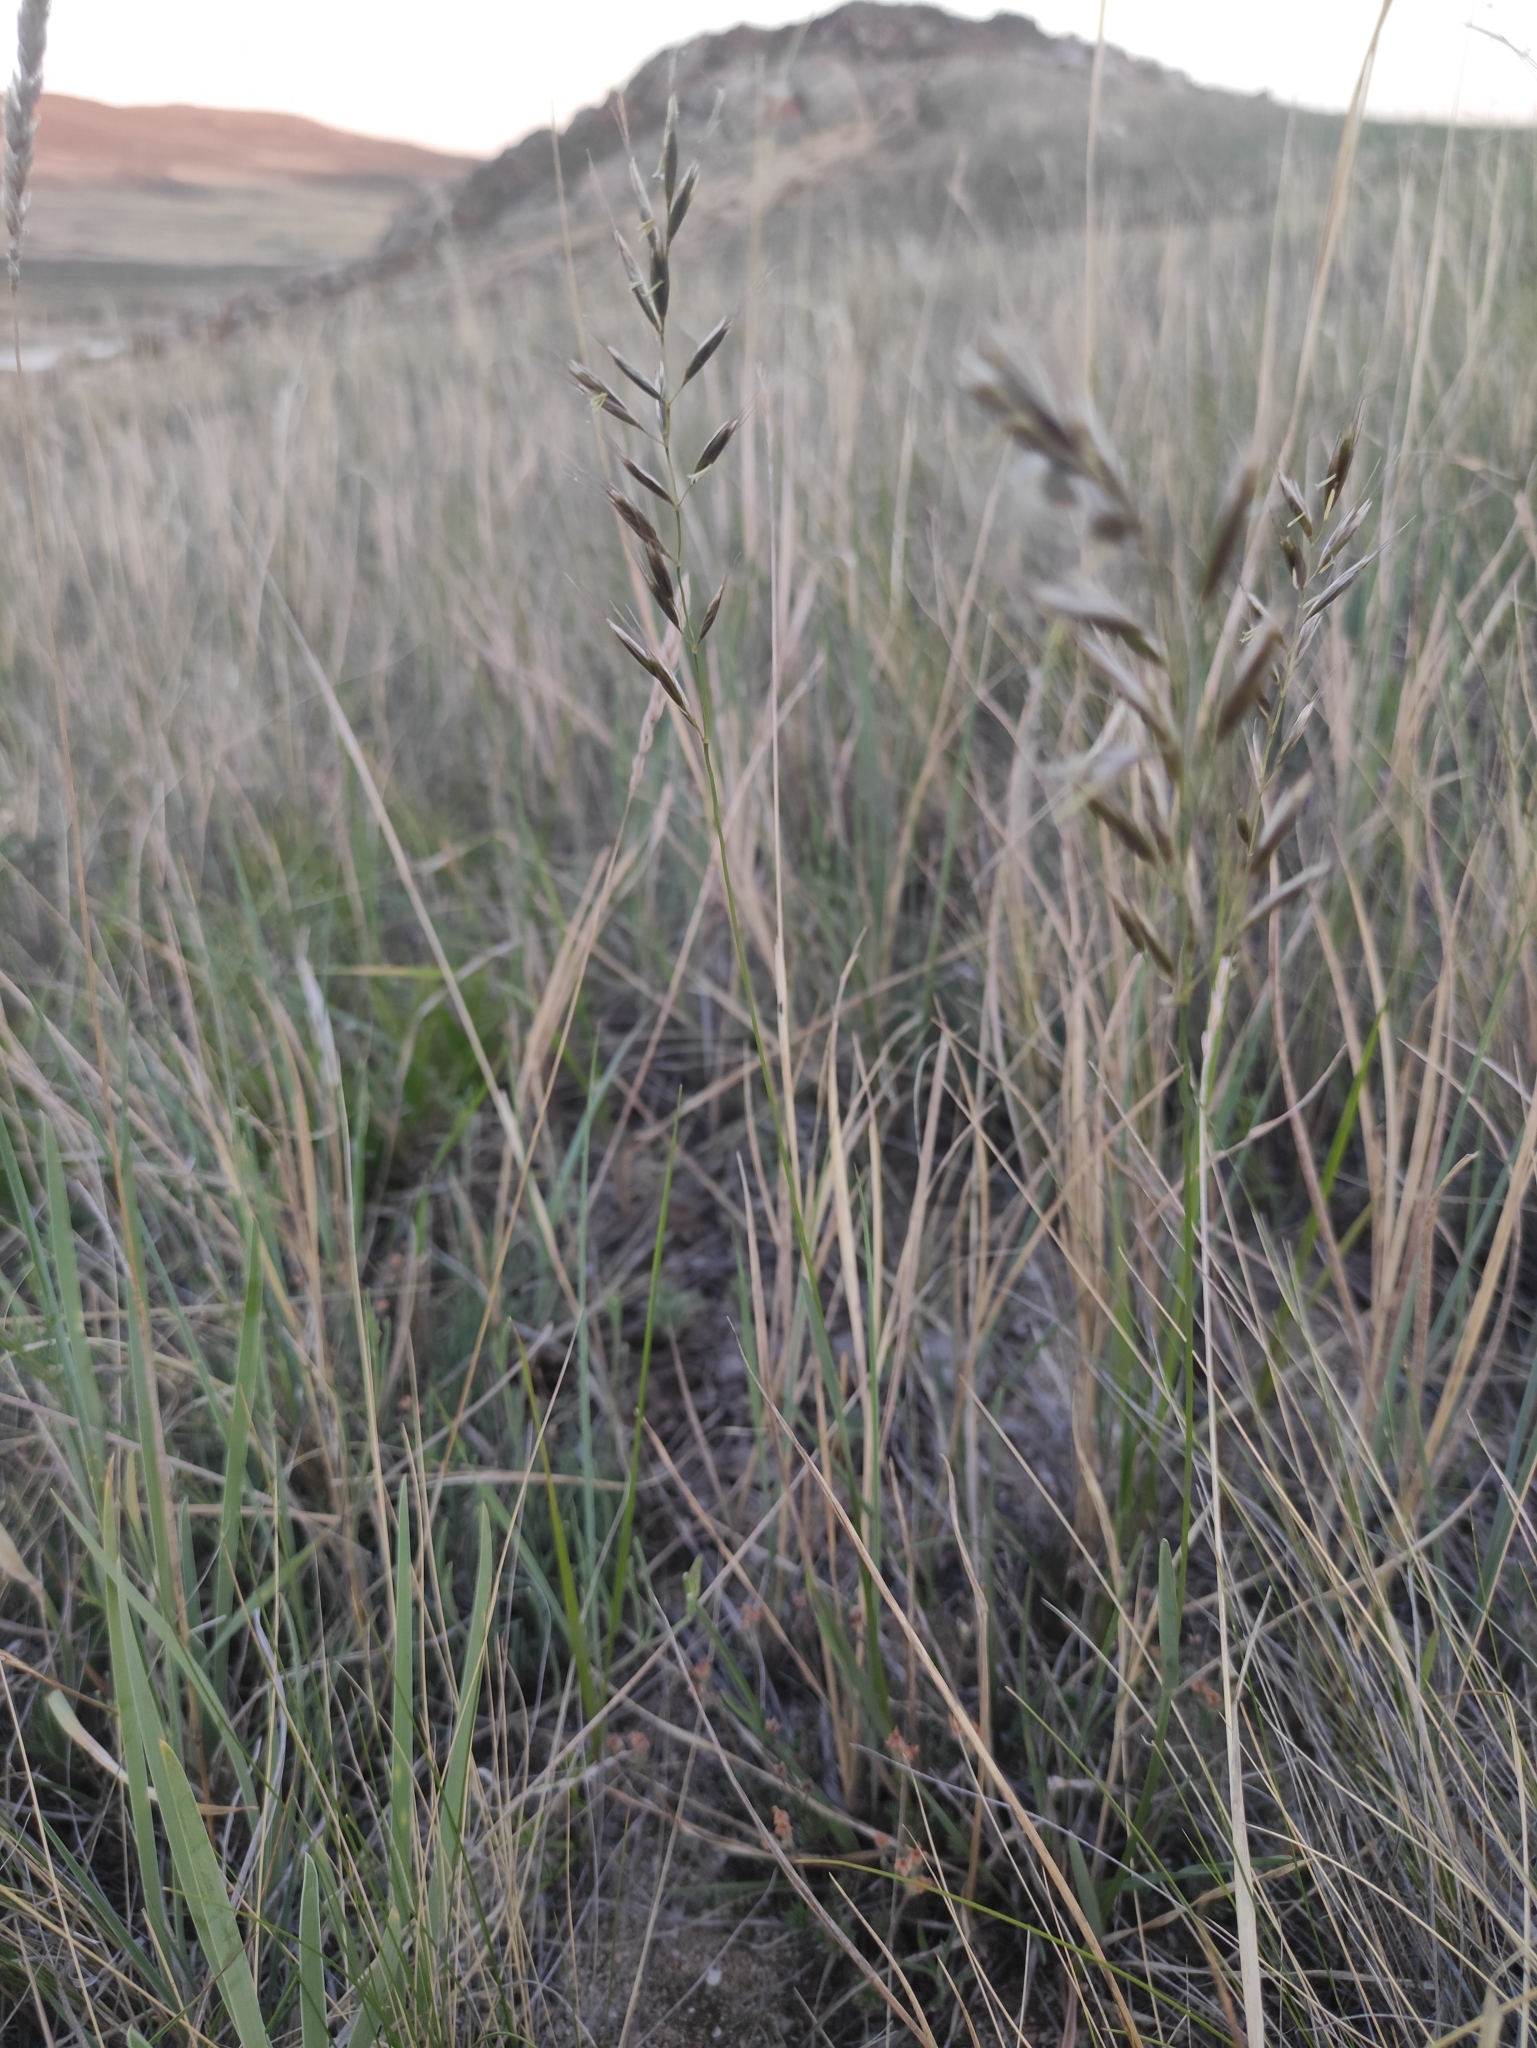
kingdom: Plantae
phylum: Tracheophyta
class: Liliopsida
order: Poales
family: Poaceae
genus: Helictochloa
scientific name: Helictochloa hookeri
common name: Hooker's alpine oatgrass
